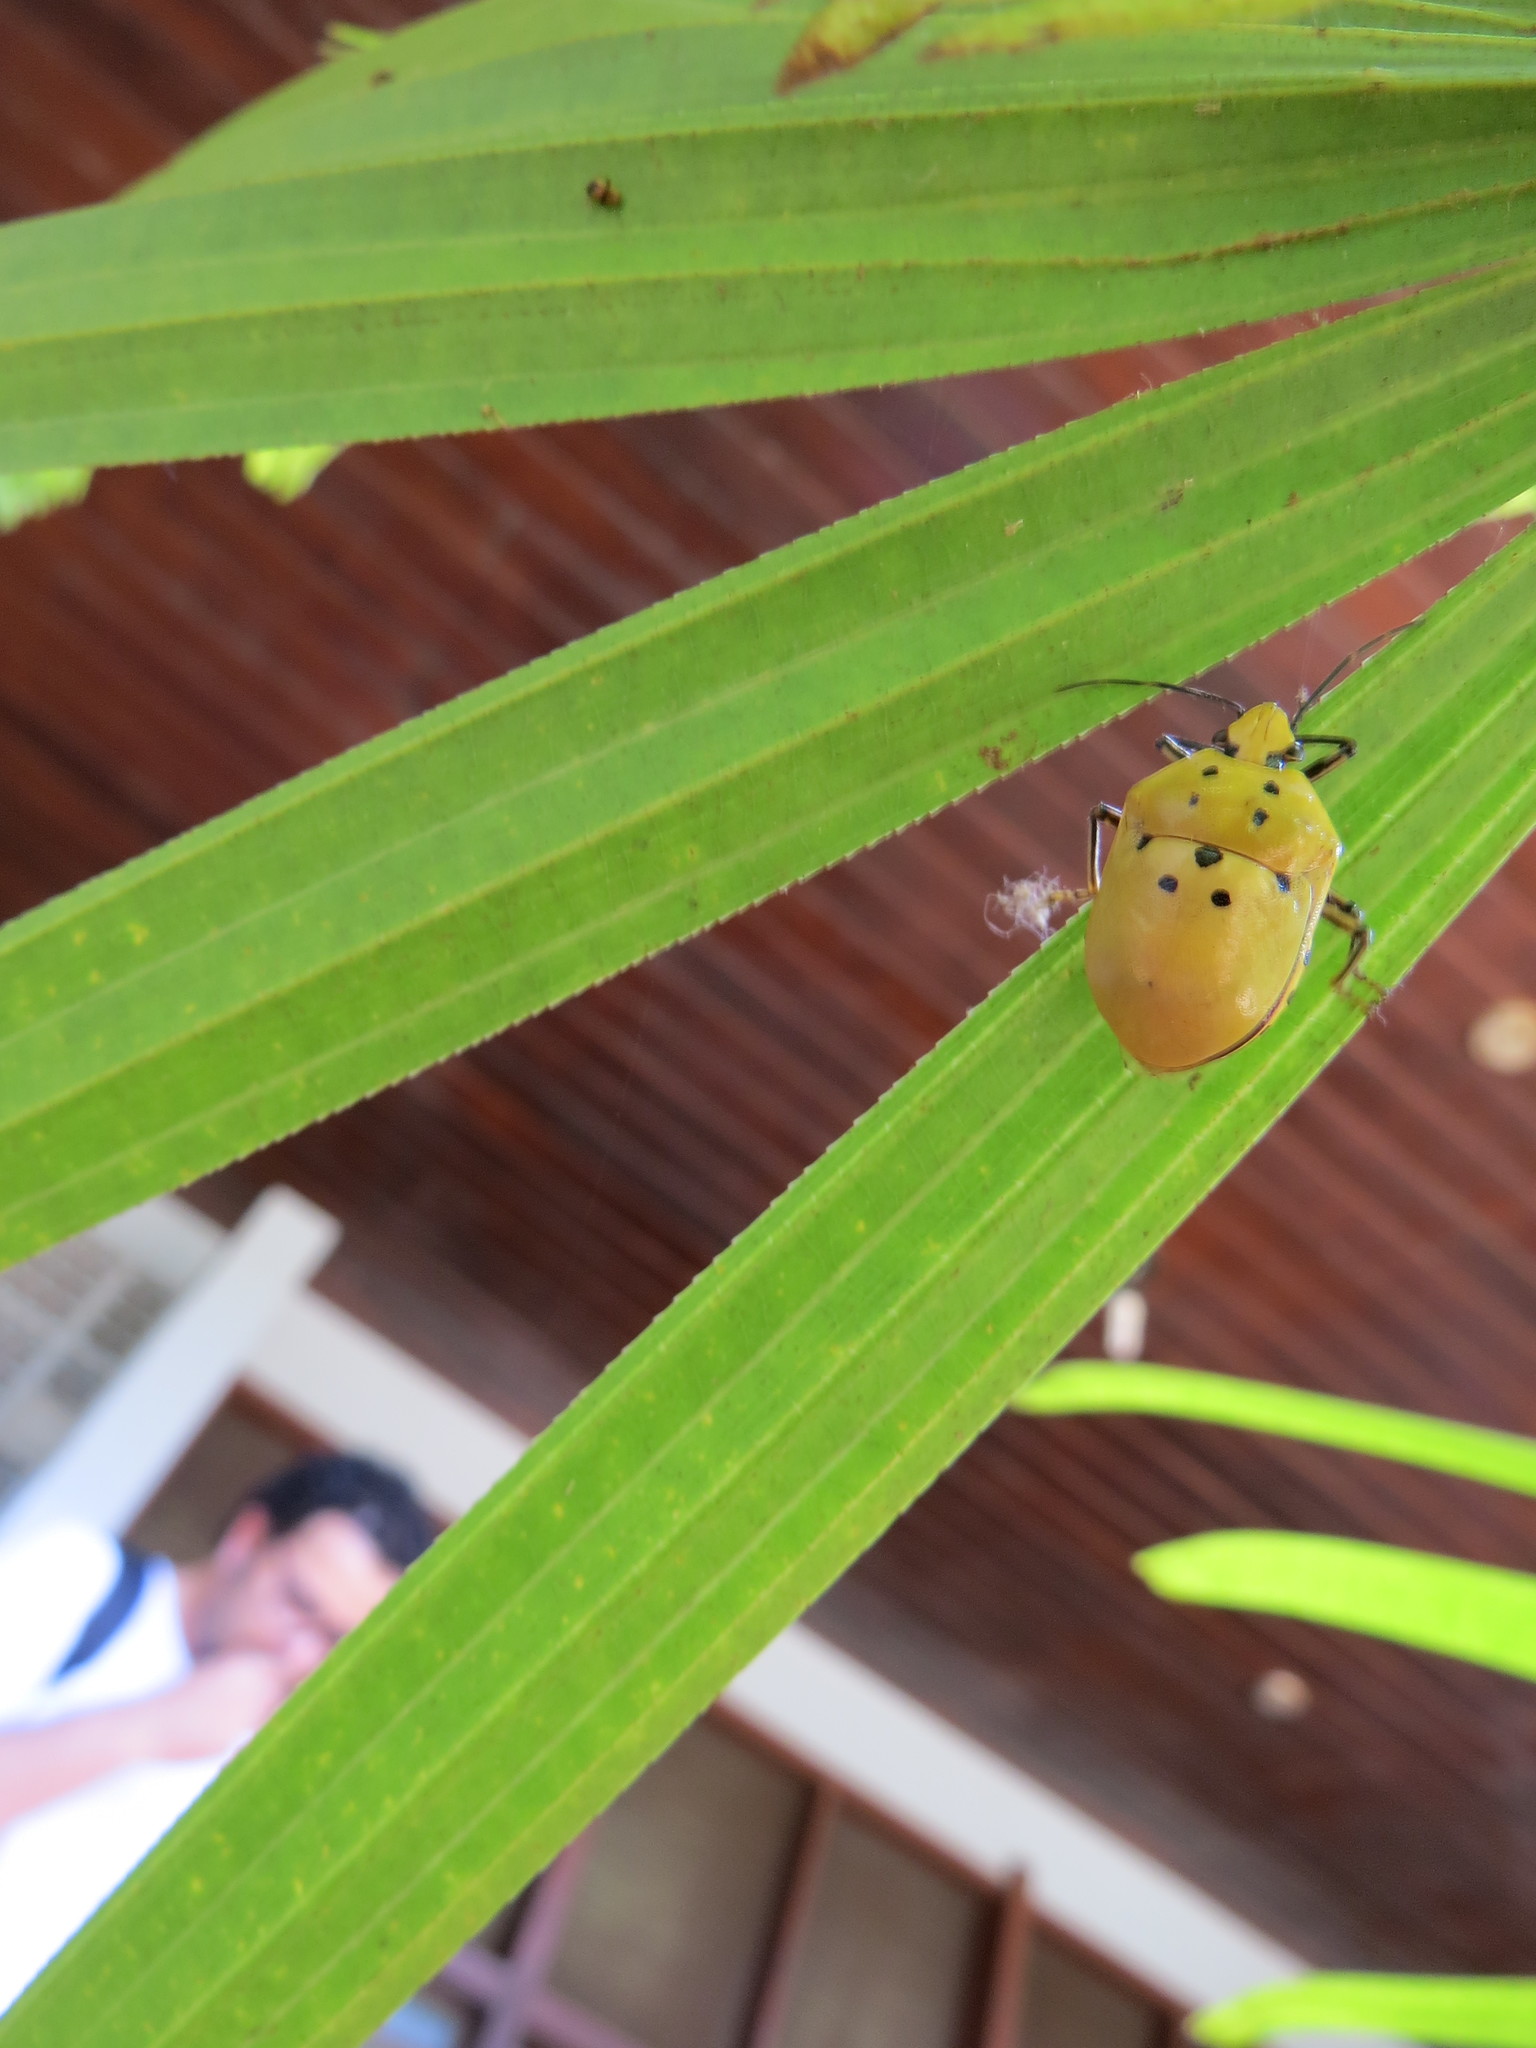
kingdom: Animalia
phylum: Arthropoda
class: Insecta
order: Hemiptera
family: Scutelleridae
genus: Augocoris
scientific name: Augocoris gomesii
